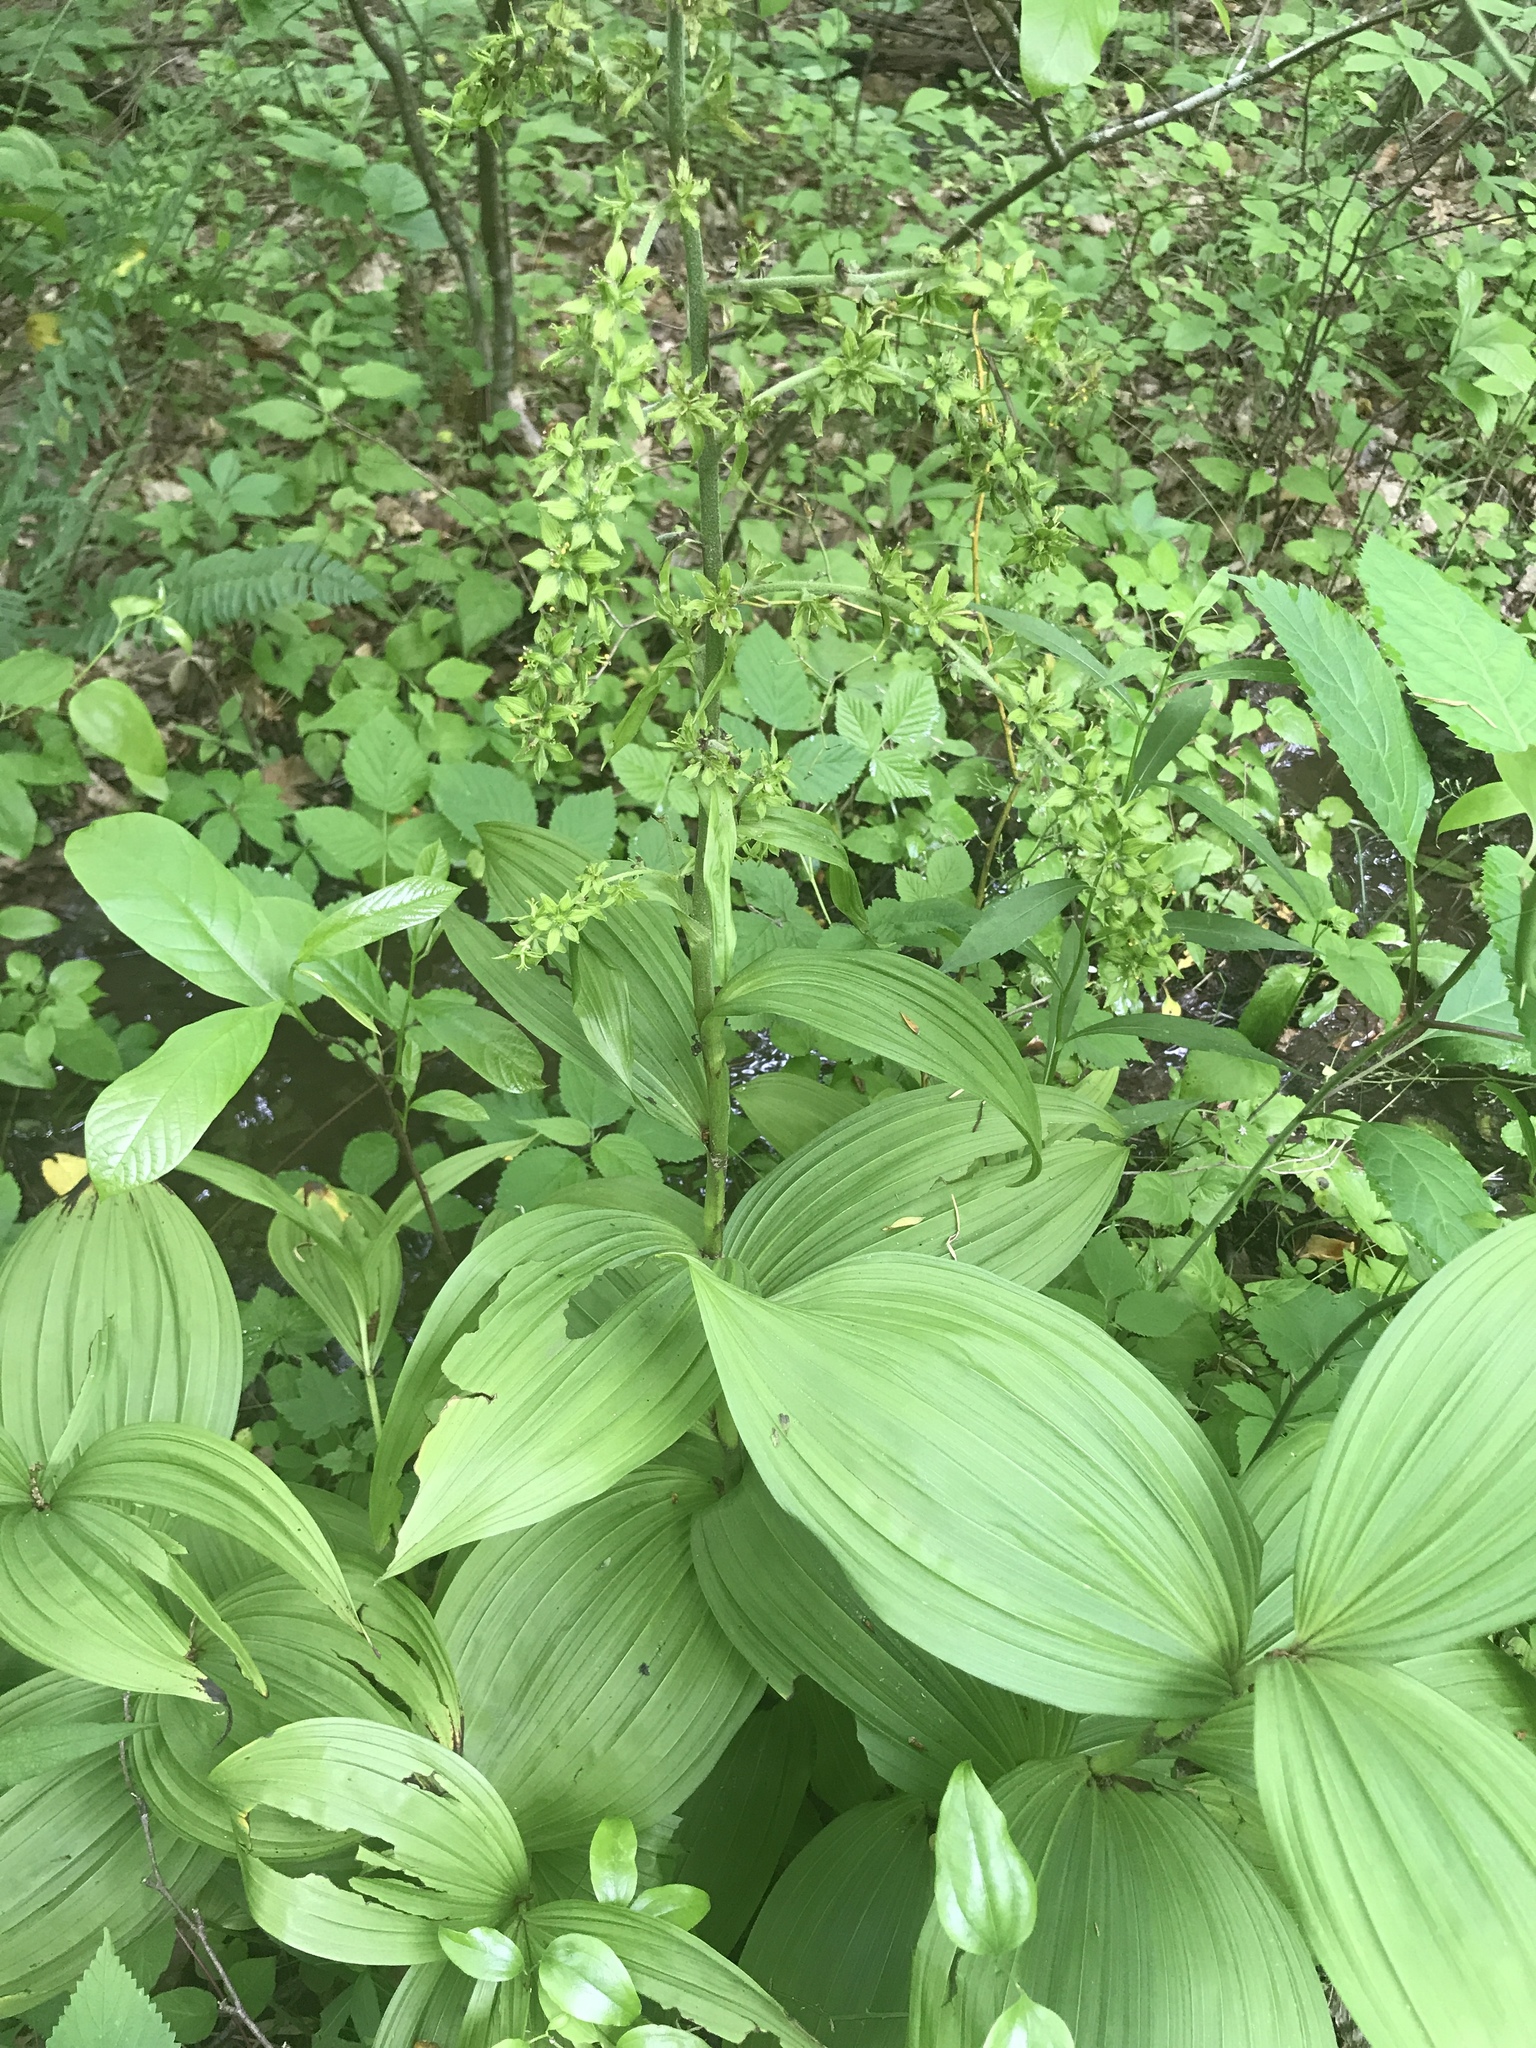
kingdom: Plantae
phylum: Tracheophyta
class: Liliopsida
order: Liliales
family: Melanthiaceae
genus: Veratrum
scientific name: Veratrum viride
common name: American false hellebore
